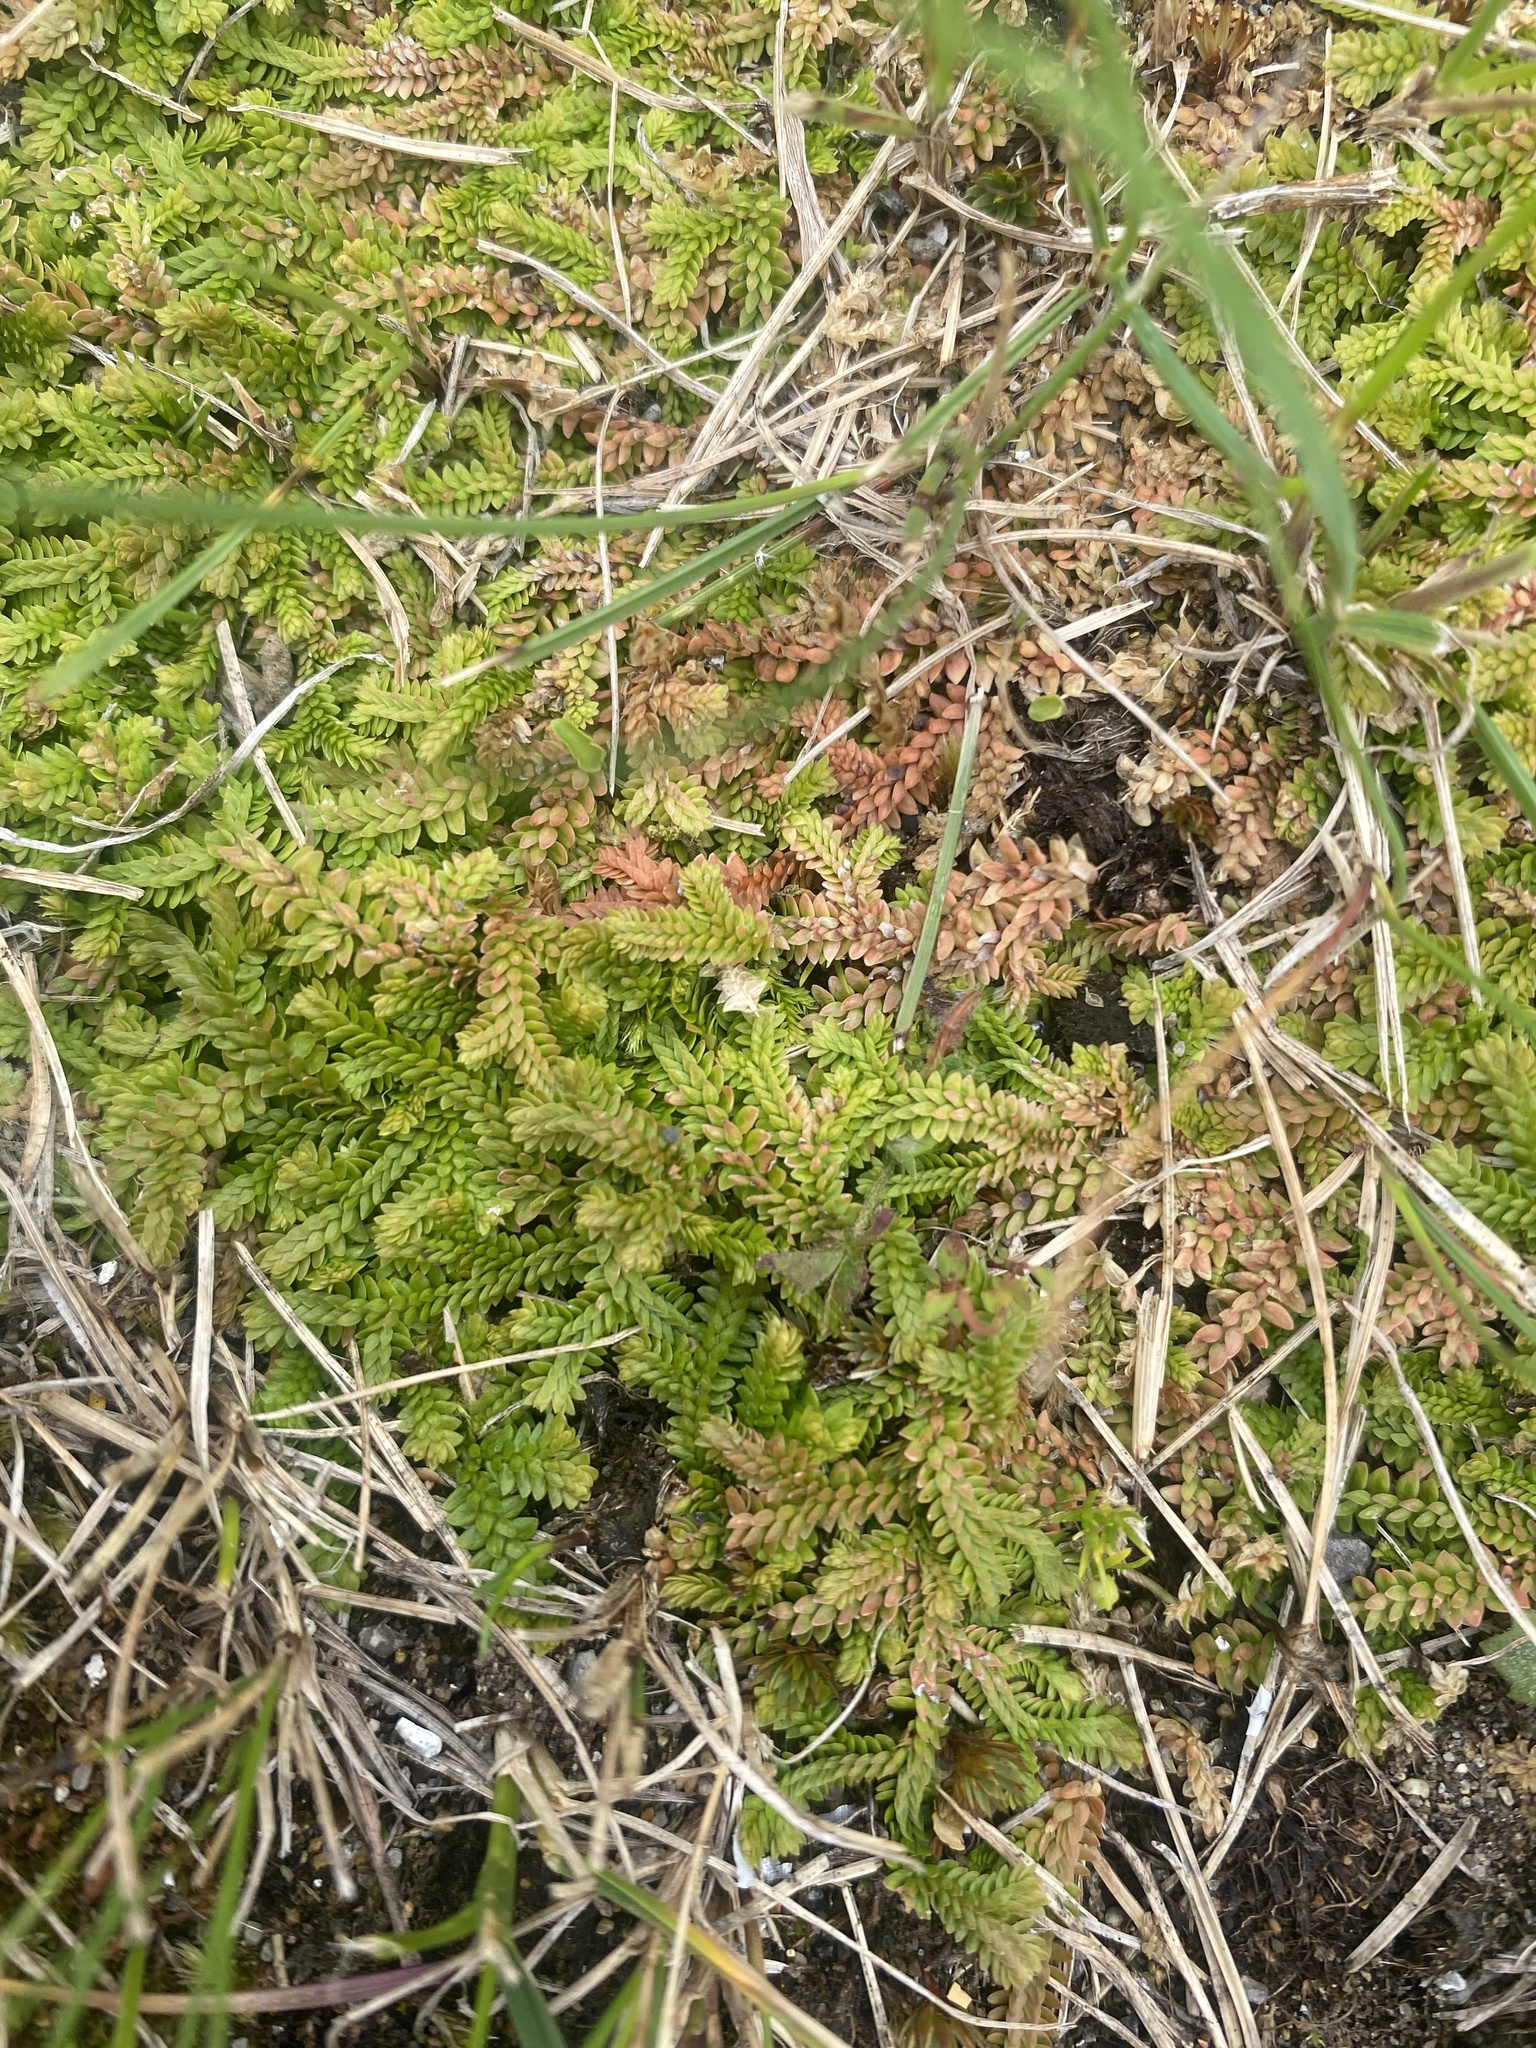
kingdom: Plantae
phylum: Tracheophyta
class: Lycopodiopsida
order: Selaginellales
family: Selaginellaceae
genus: Selaginella
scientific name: Selaginella helvetica
